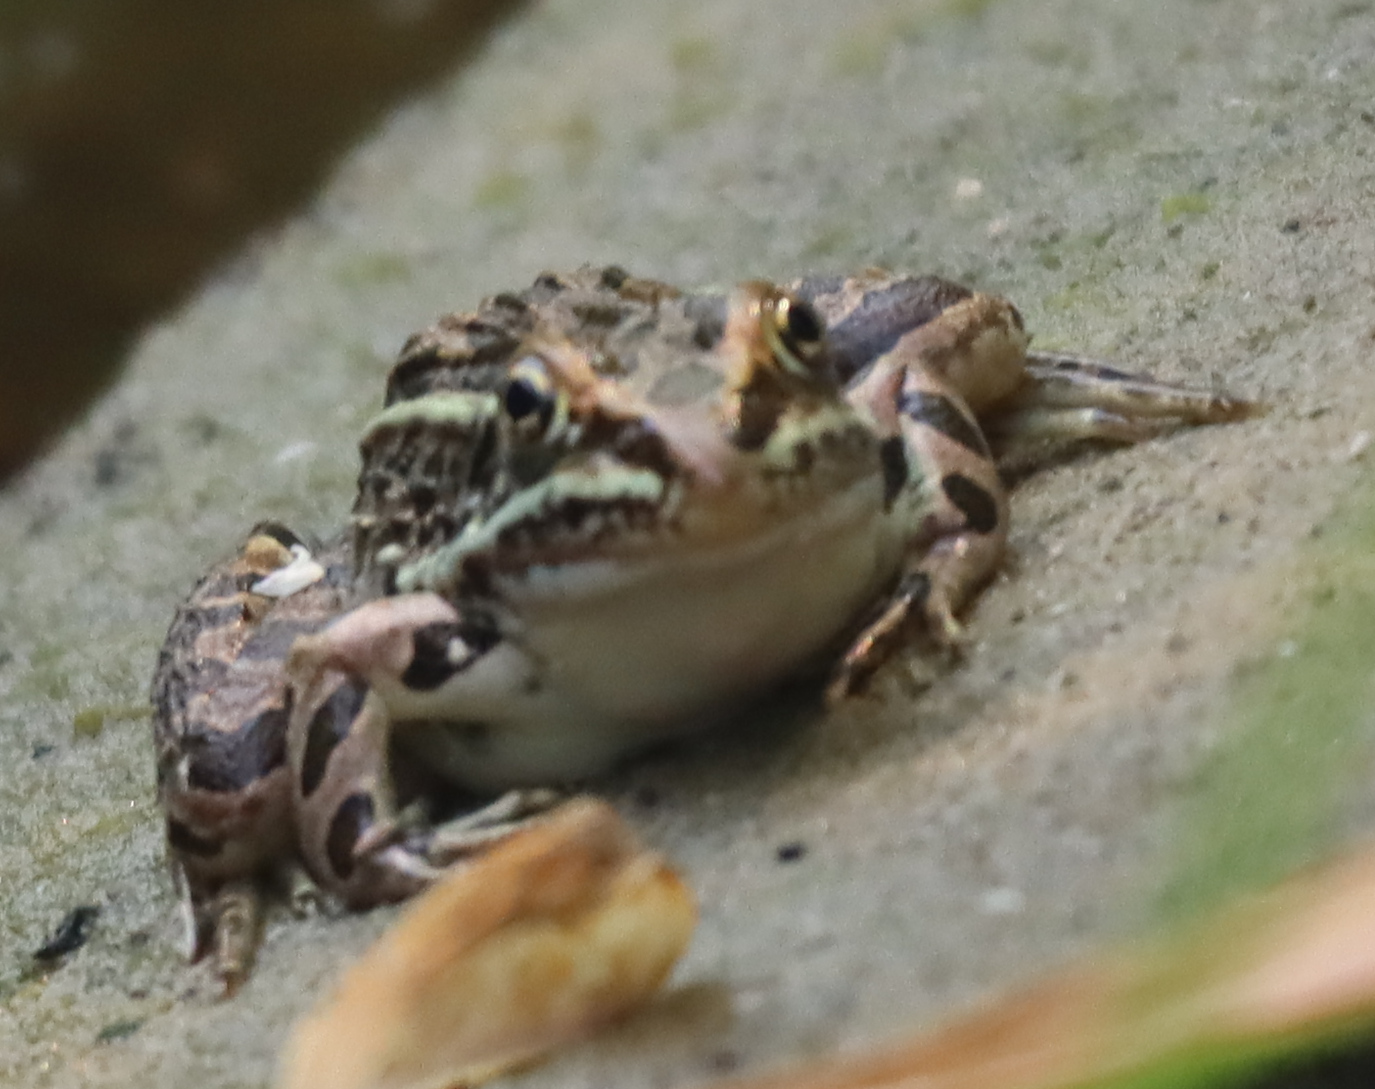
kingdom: Animalia
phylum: Chordata
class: Amphibia
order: Anura
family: Ranidae
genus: Lithobates
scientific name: Lithobates pipiens
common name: Northern leopard frog
